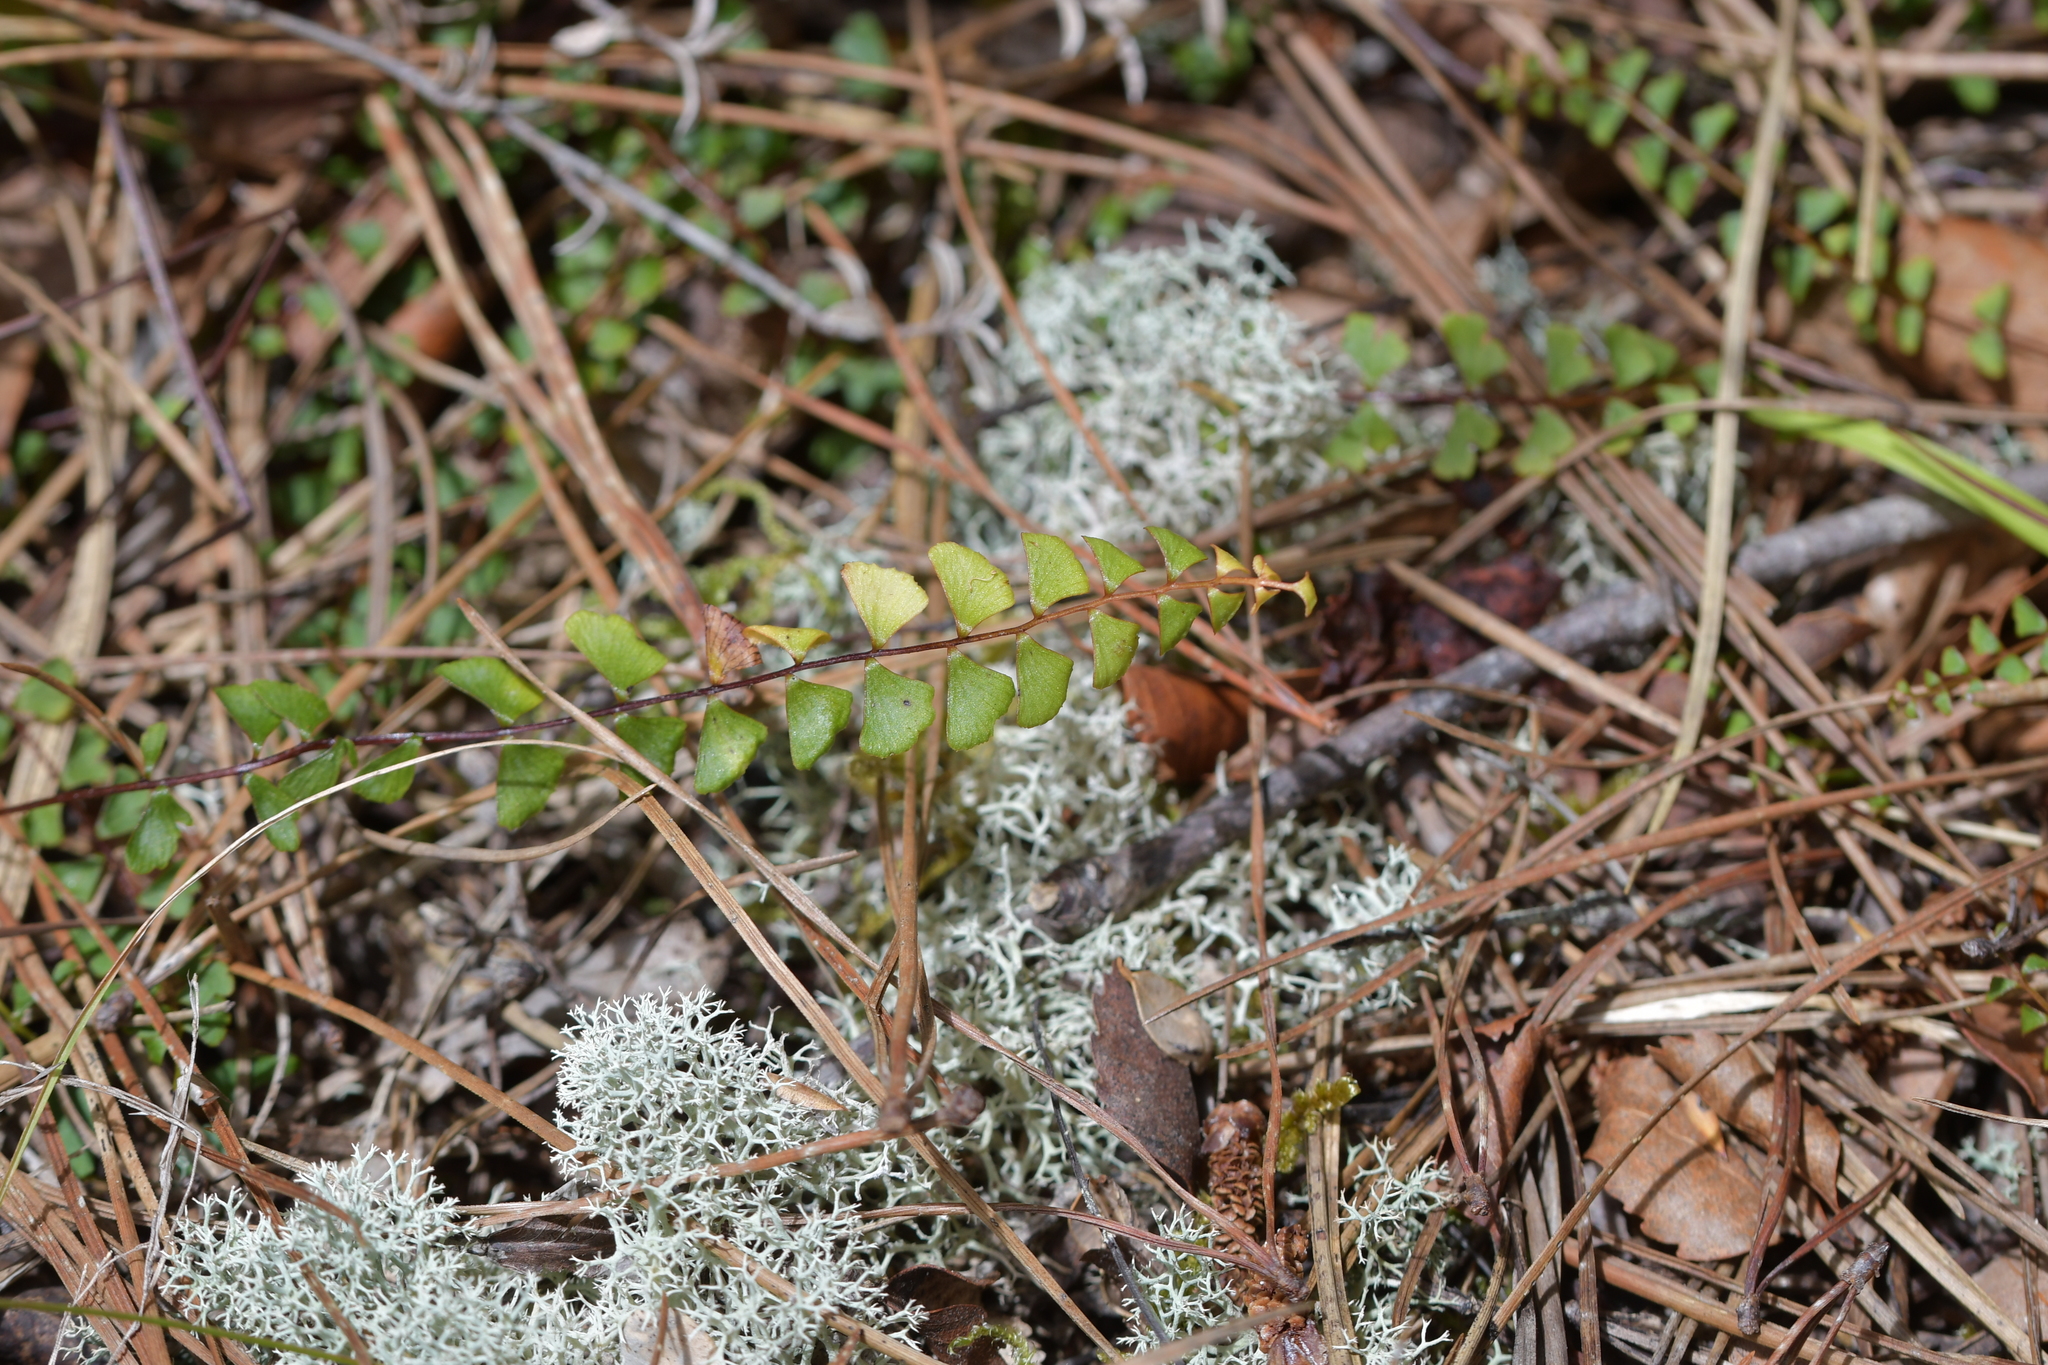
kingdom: Plantae
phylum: Tracheophyta
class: Polypodiopsida
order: Polypodiales
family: Lindsaeaceae
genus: Lindsaea
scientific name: Lindsaea linearis
